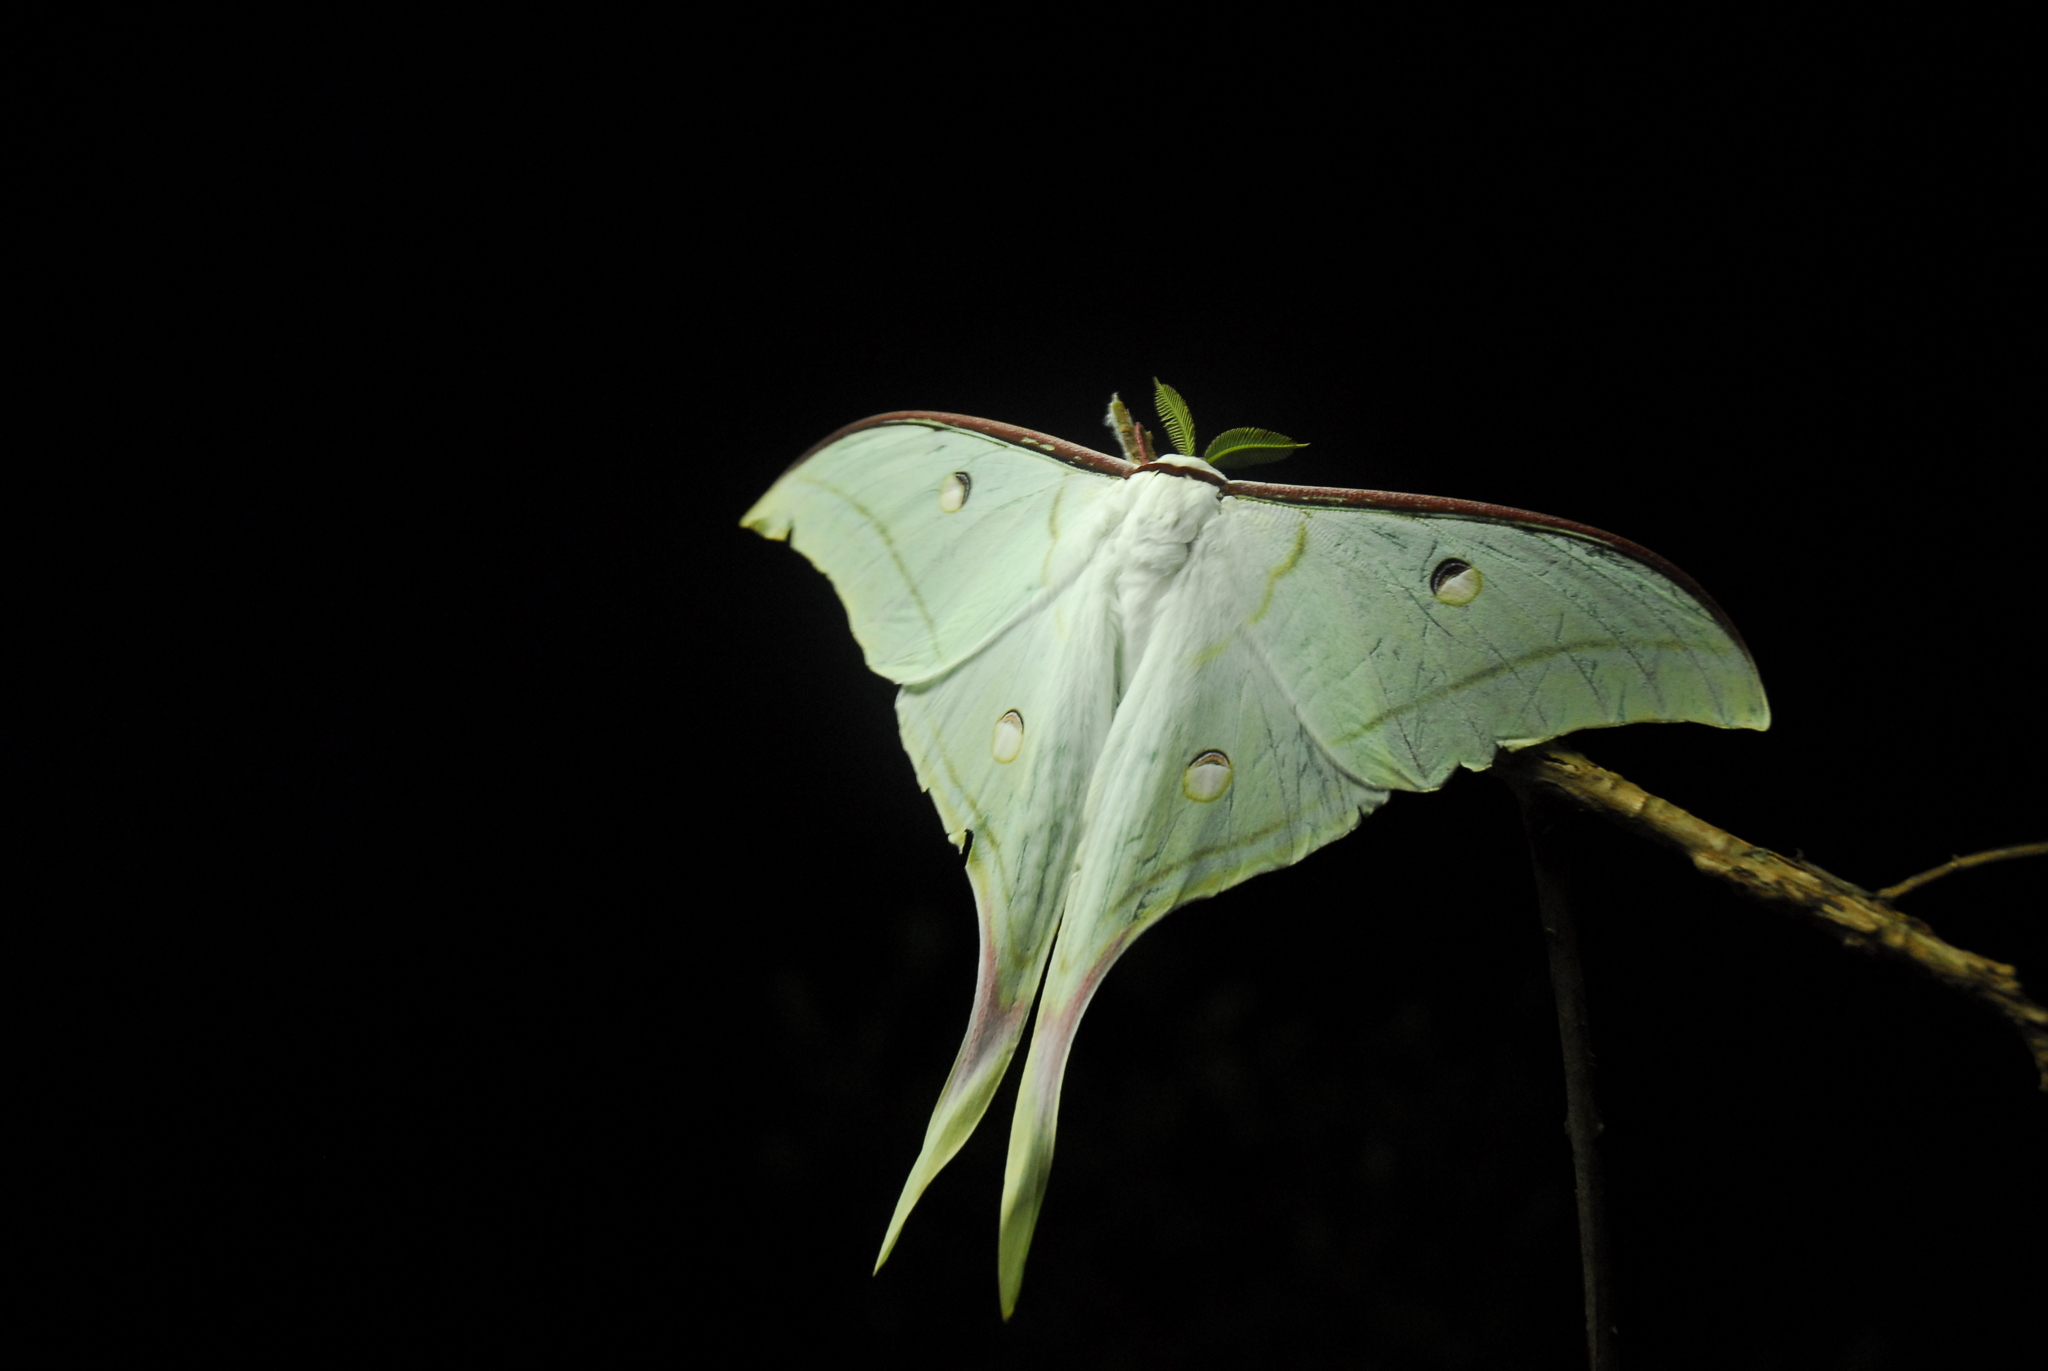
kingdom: Animalia
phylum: Arthropoda
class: Insecta
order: Lepidoptera
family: Saturniidae
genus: Actias
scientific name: Actias selene
